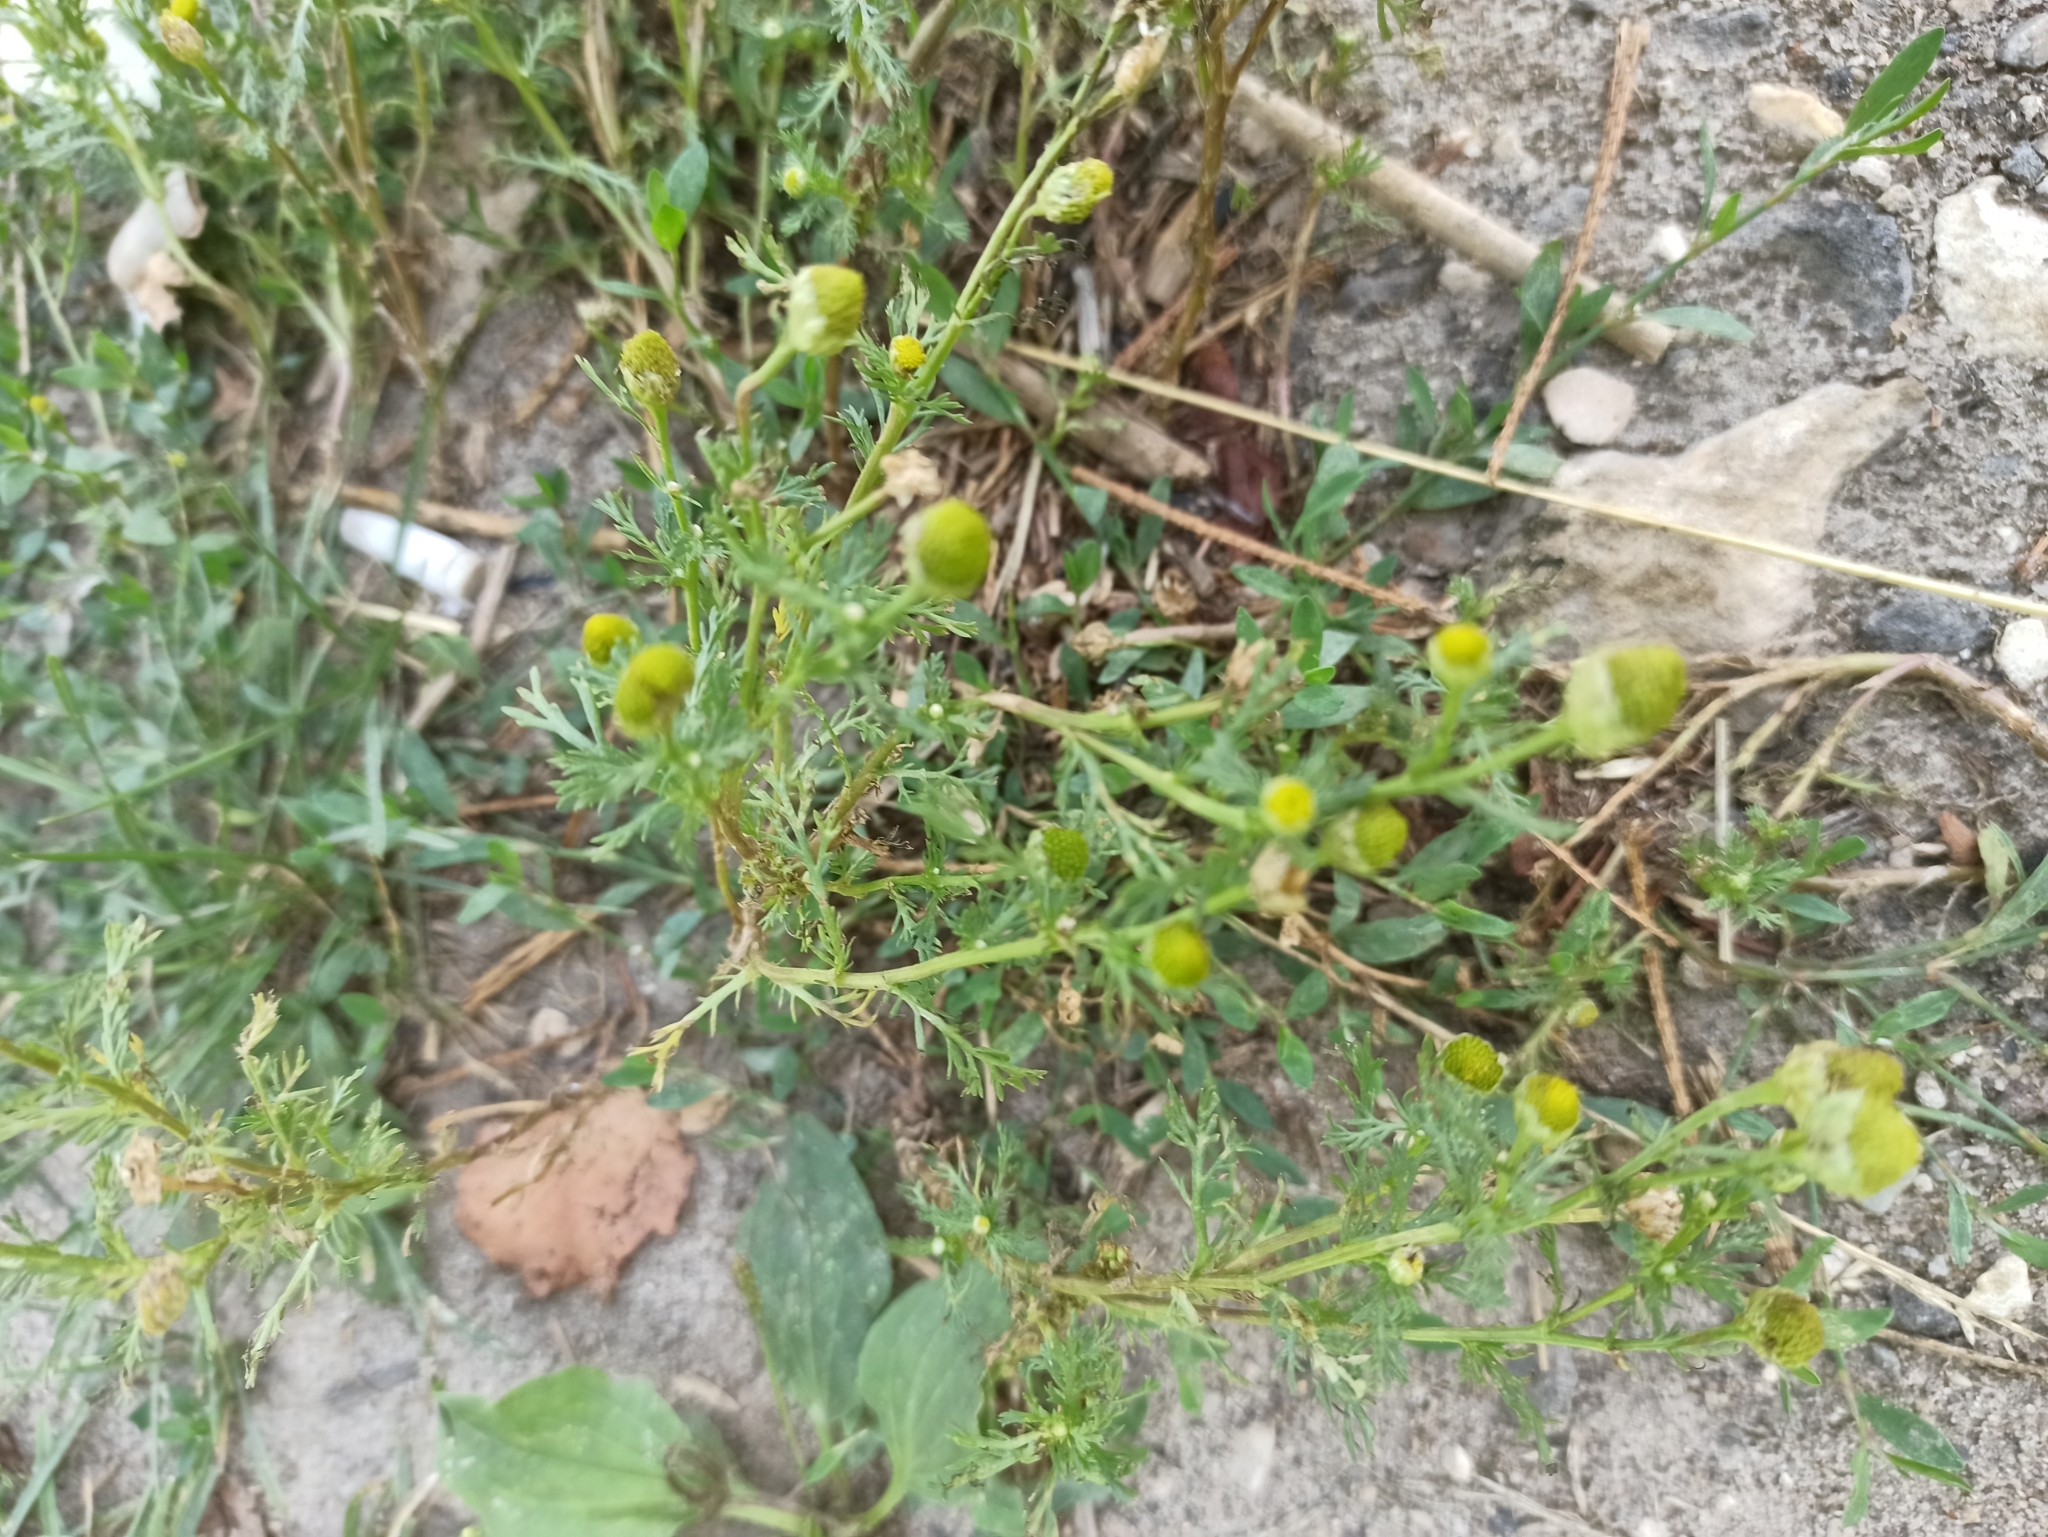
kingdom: Plantae
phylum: Tracheophyta
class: Magnoliopsida
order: Asterales
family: Asteraceae
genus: Matricaria
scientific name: Matricaria discoidea
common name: Disc mayweed
